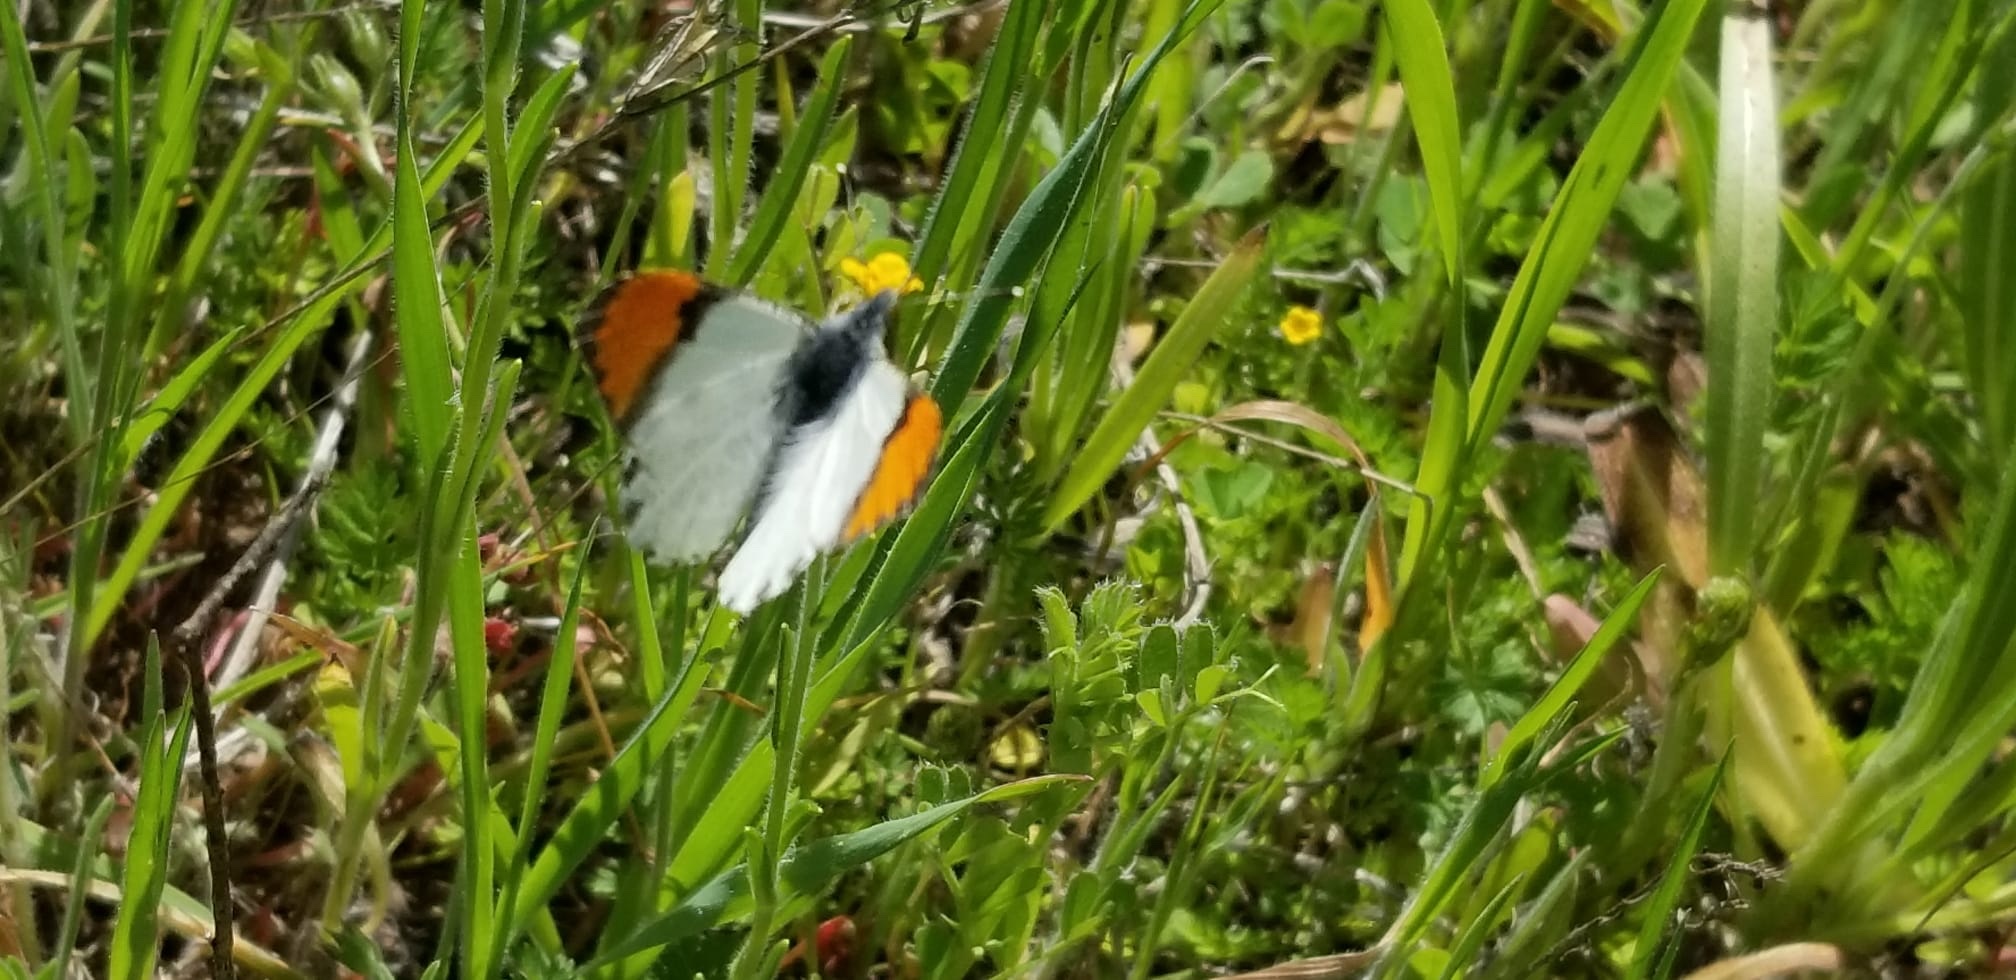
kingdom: Animalia
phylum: Arthropoda
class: Insecta
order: Lepidoptera
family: Pieridae
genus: Anthocharis
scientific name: Anthocharis sara
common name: Sara's orangetip
